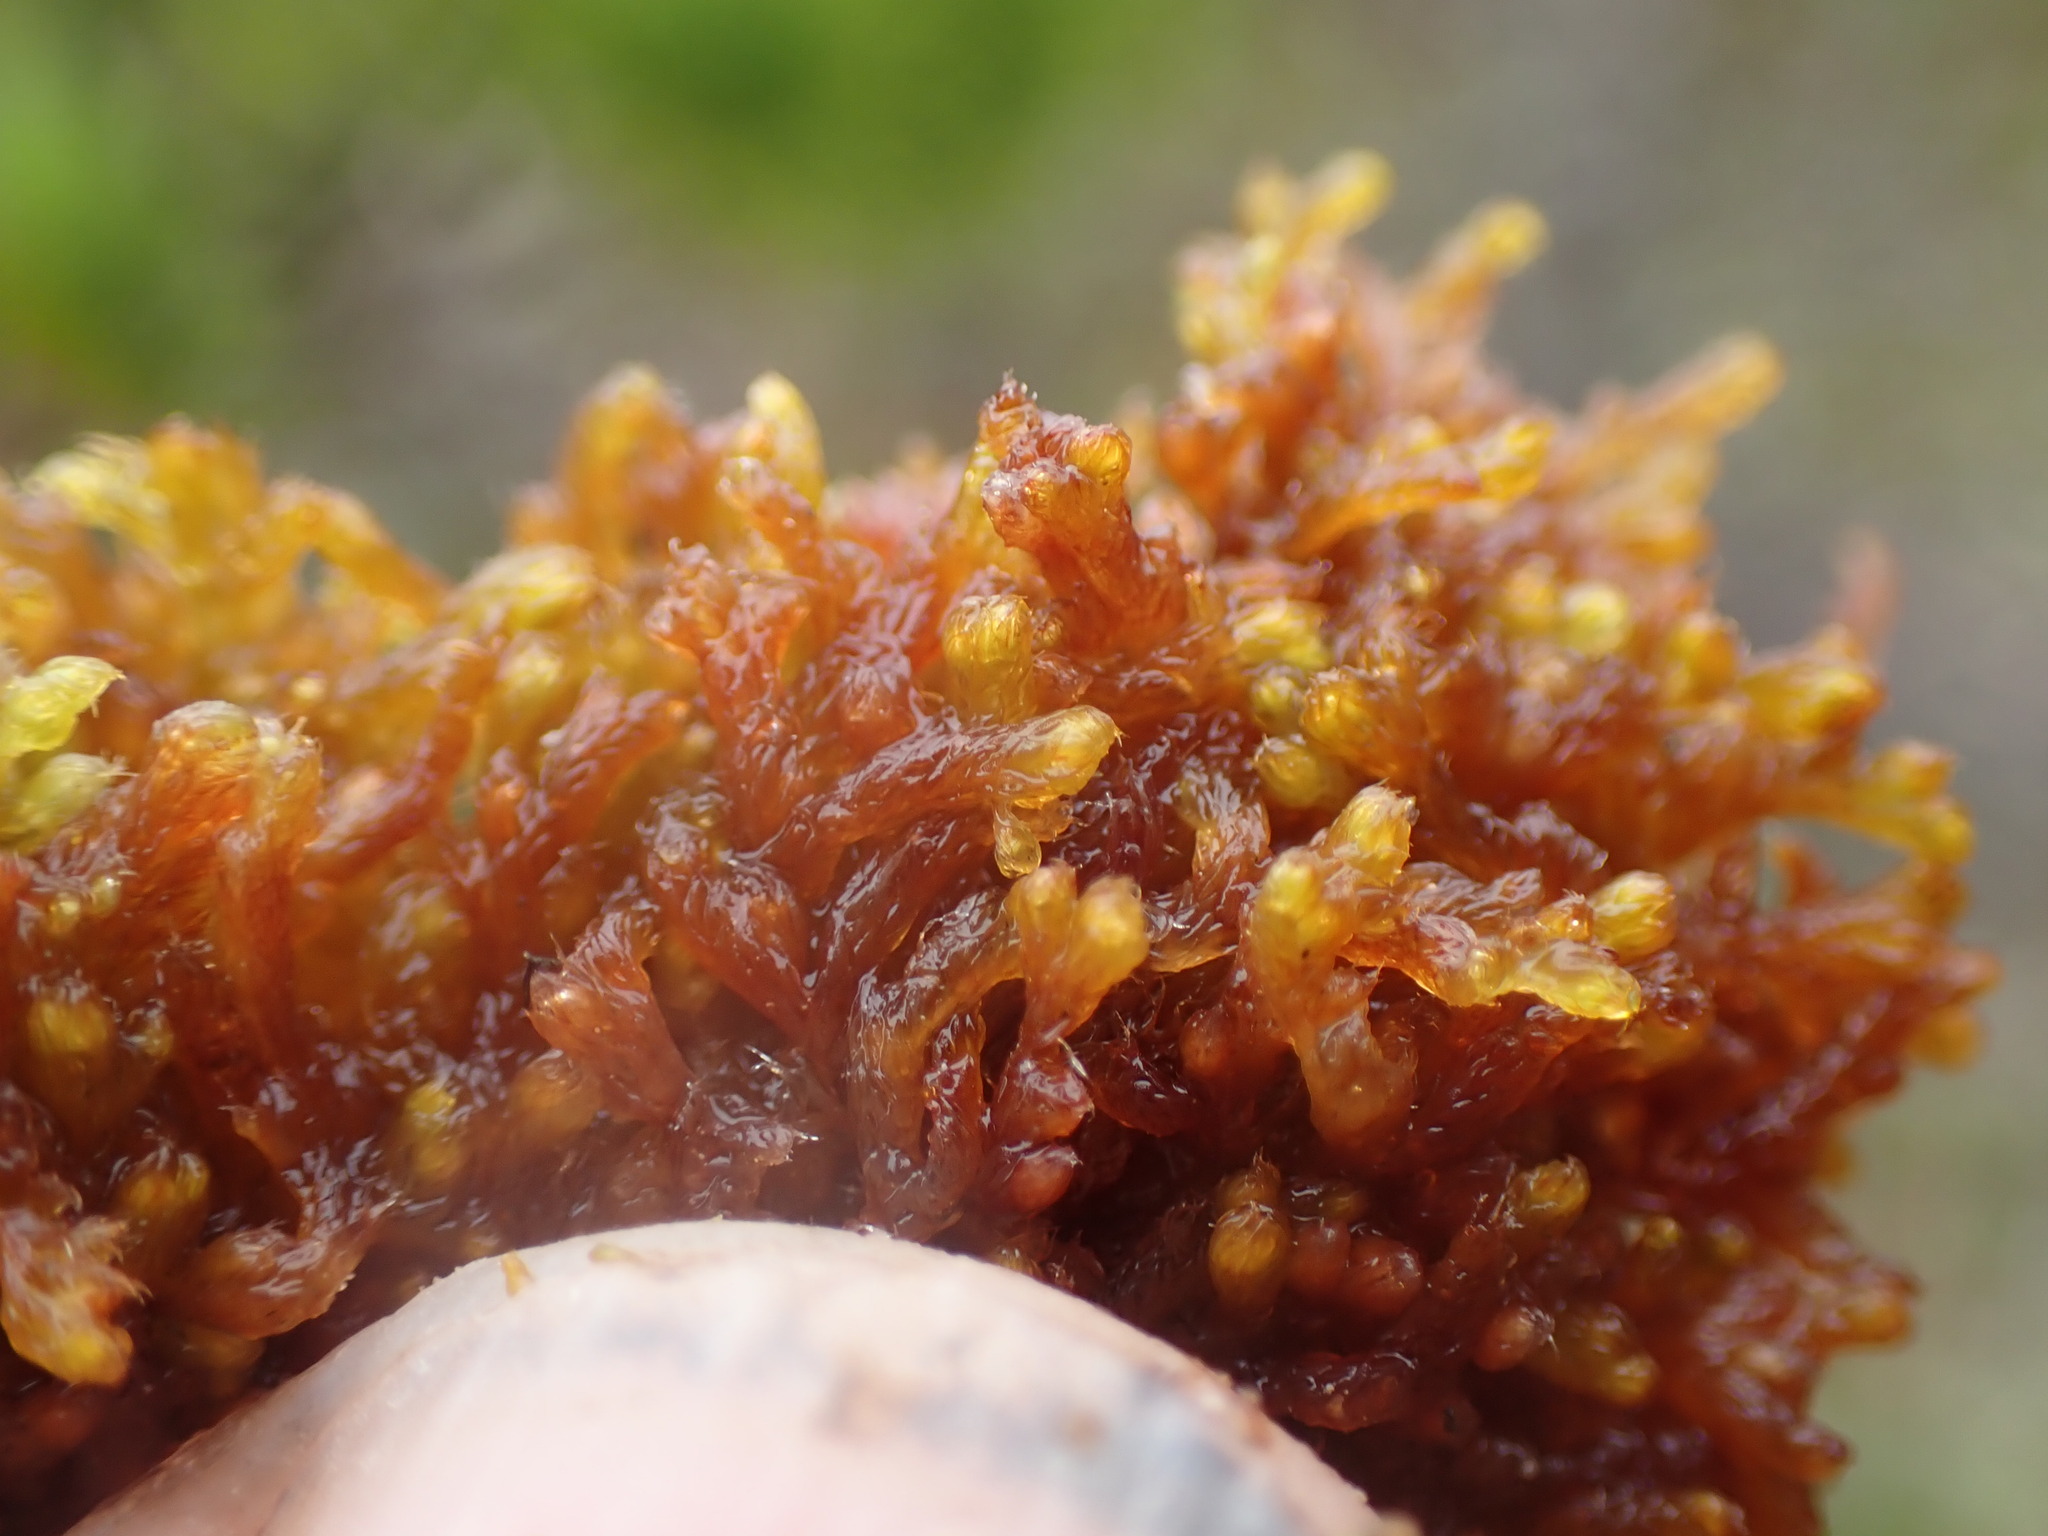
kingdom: Plantae
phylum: Marchantiophyta
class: Jungermanniopsida
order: Ptilidiales
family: Ptilidiaceae
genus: Ptilidium
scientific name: Ptilidium californicum
